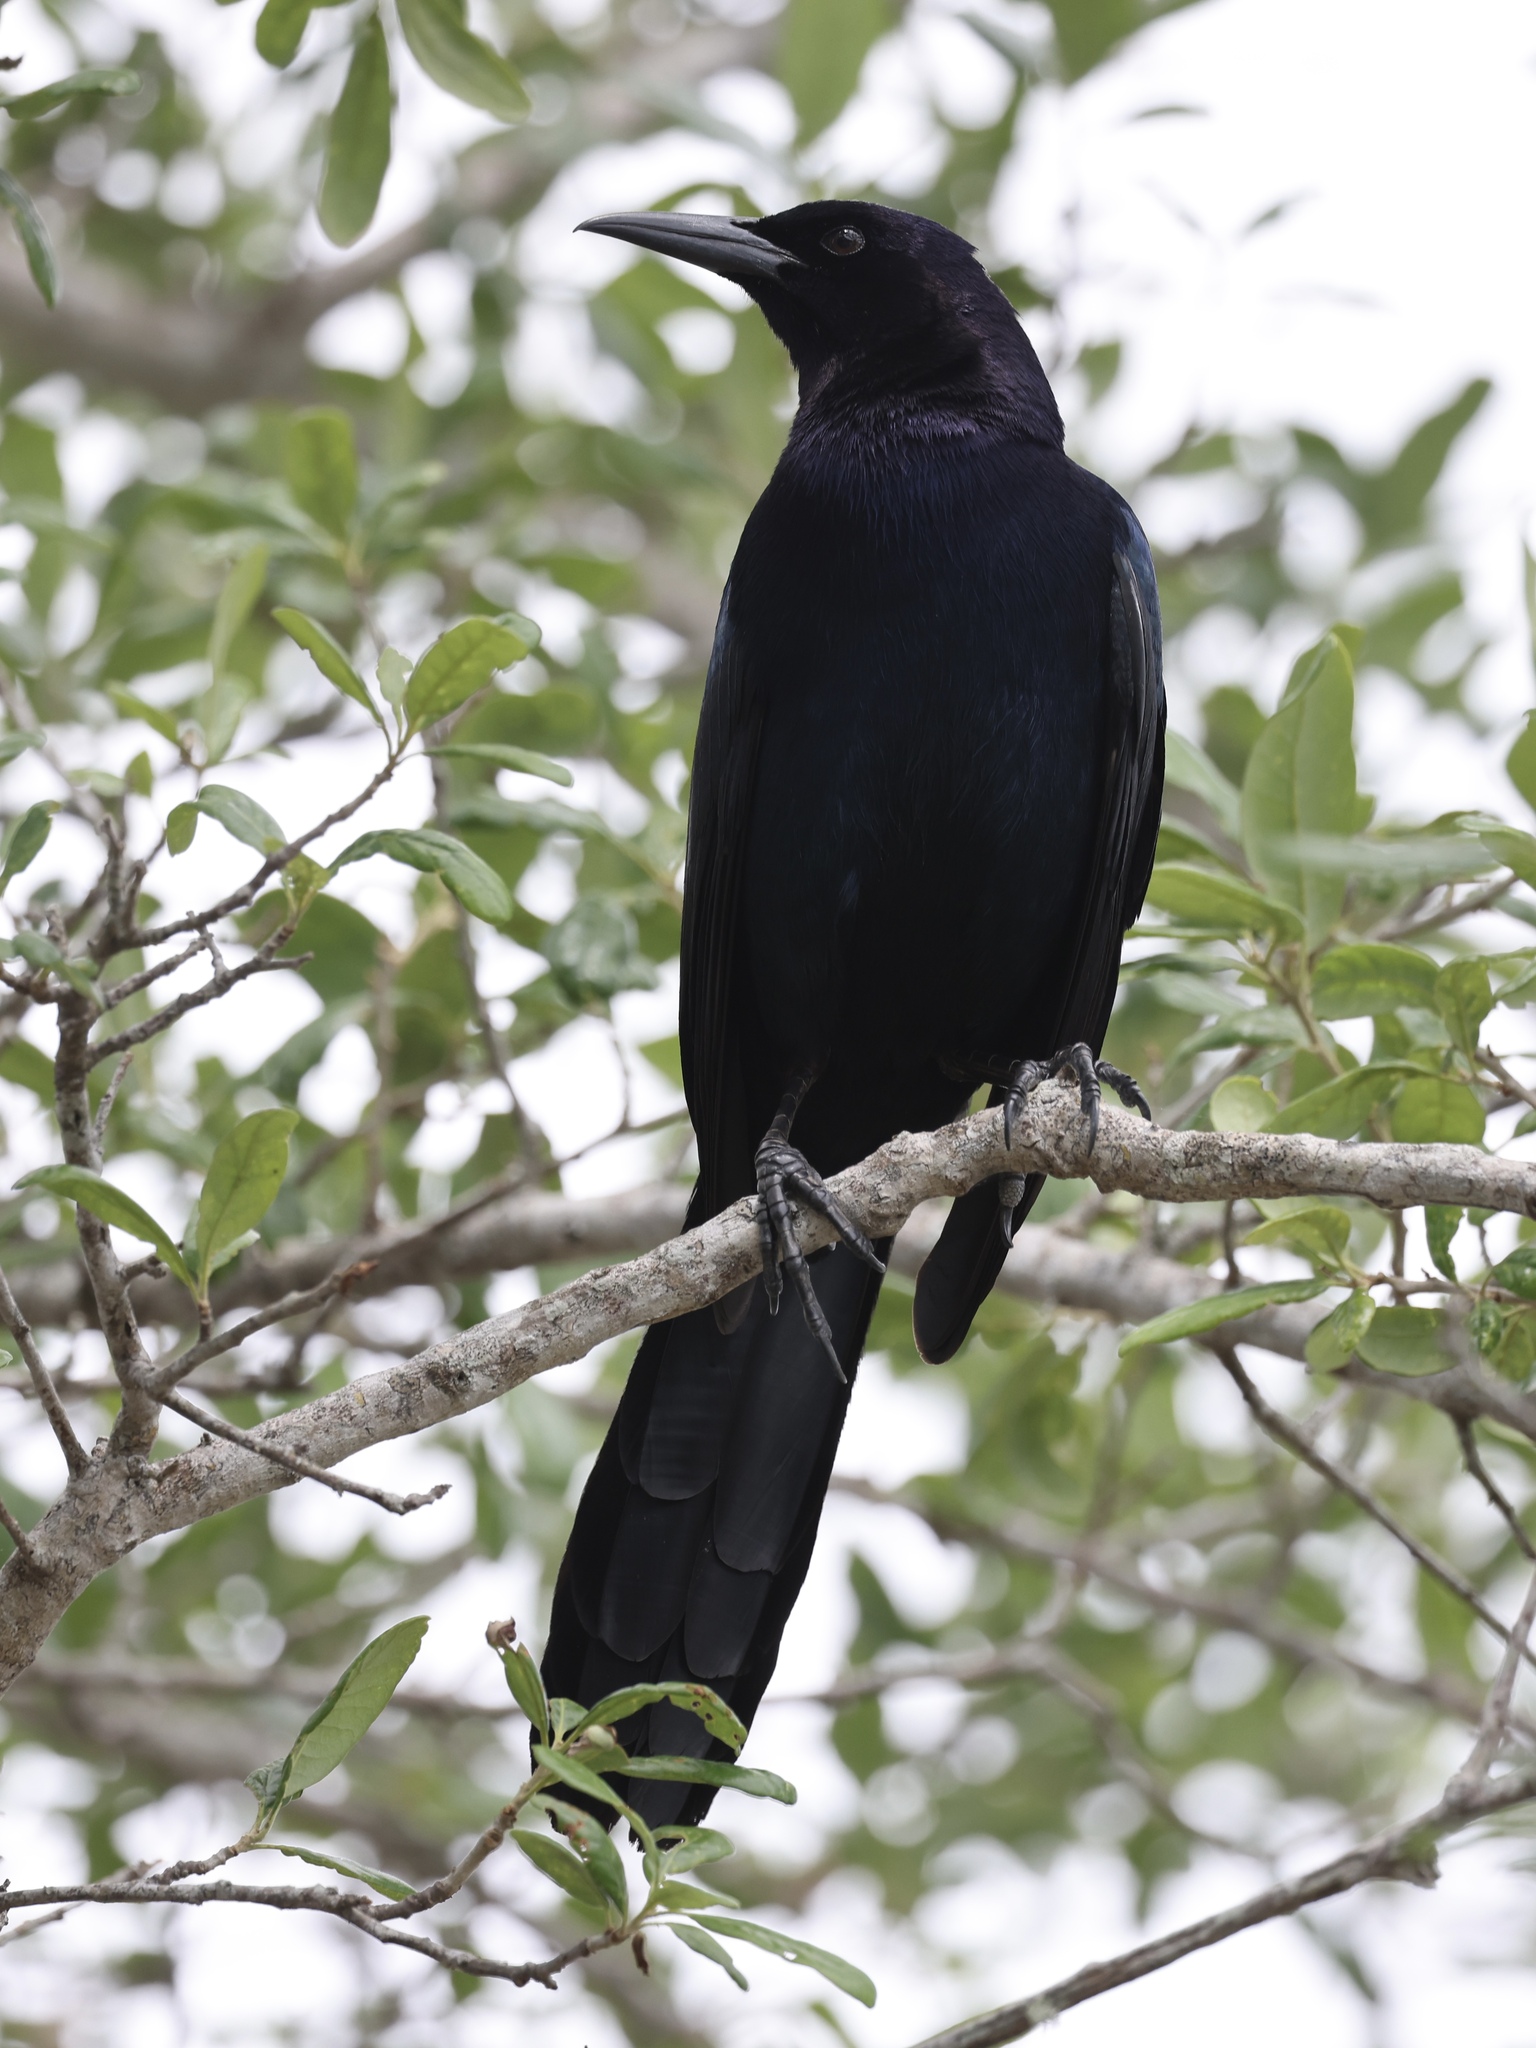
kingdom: Animalia
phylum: Chordata
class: Aves
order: Passeriformes
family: Icteridae
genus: Quiscalus
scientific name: Quiscalus major
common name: Boat-tailed grackle
